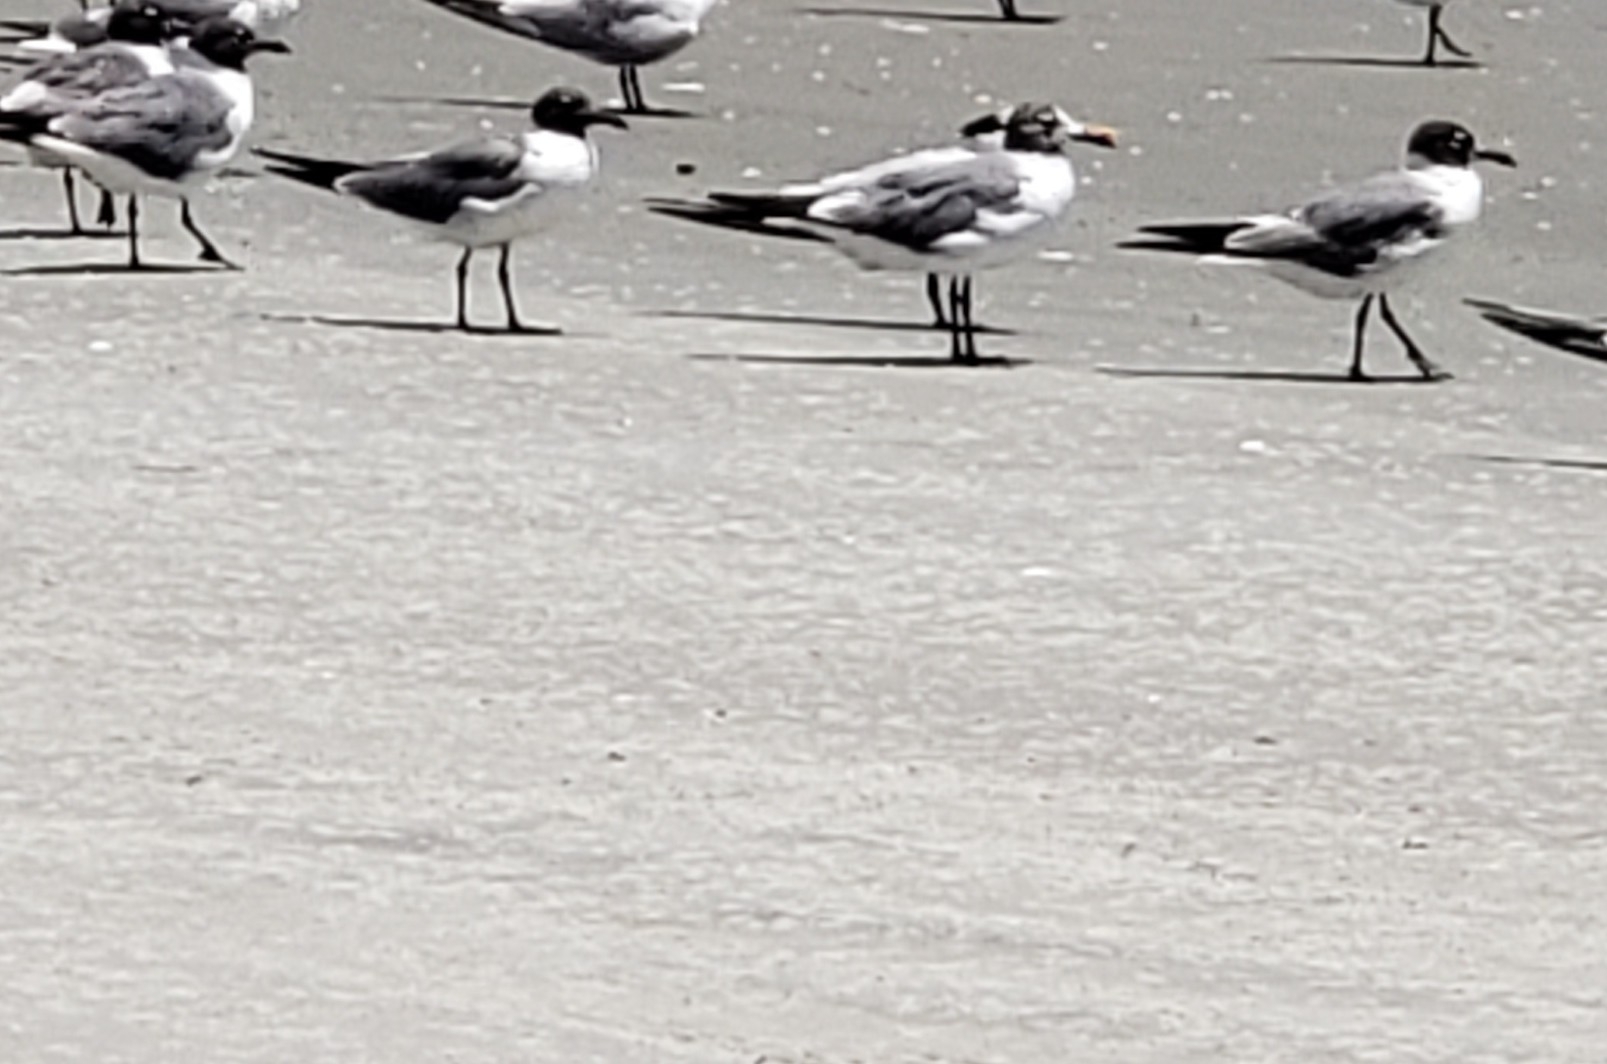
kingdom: Animalia
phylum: Chordata
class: Aves
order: Charadriiformes
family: Laridae
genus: Leucophaeus
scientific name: Leucophaeus atricilla
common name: Laughing gull
